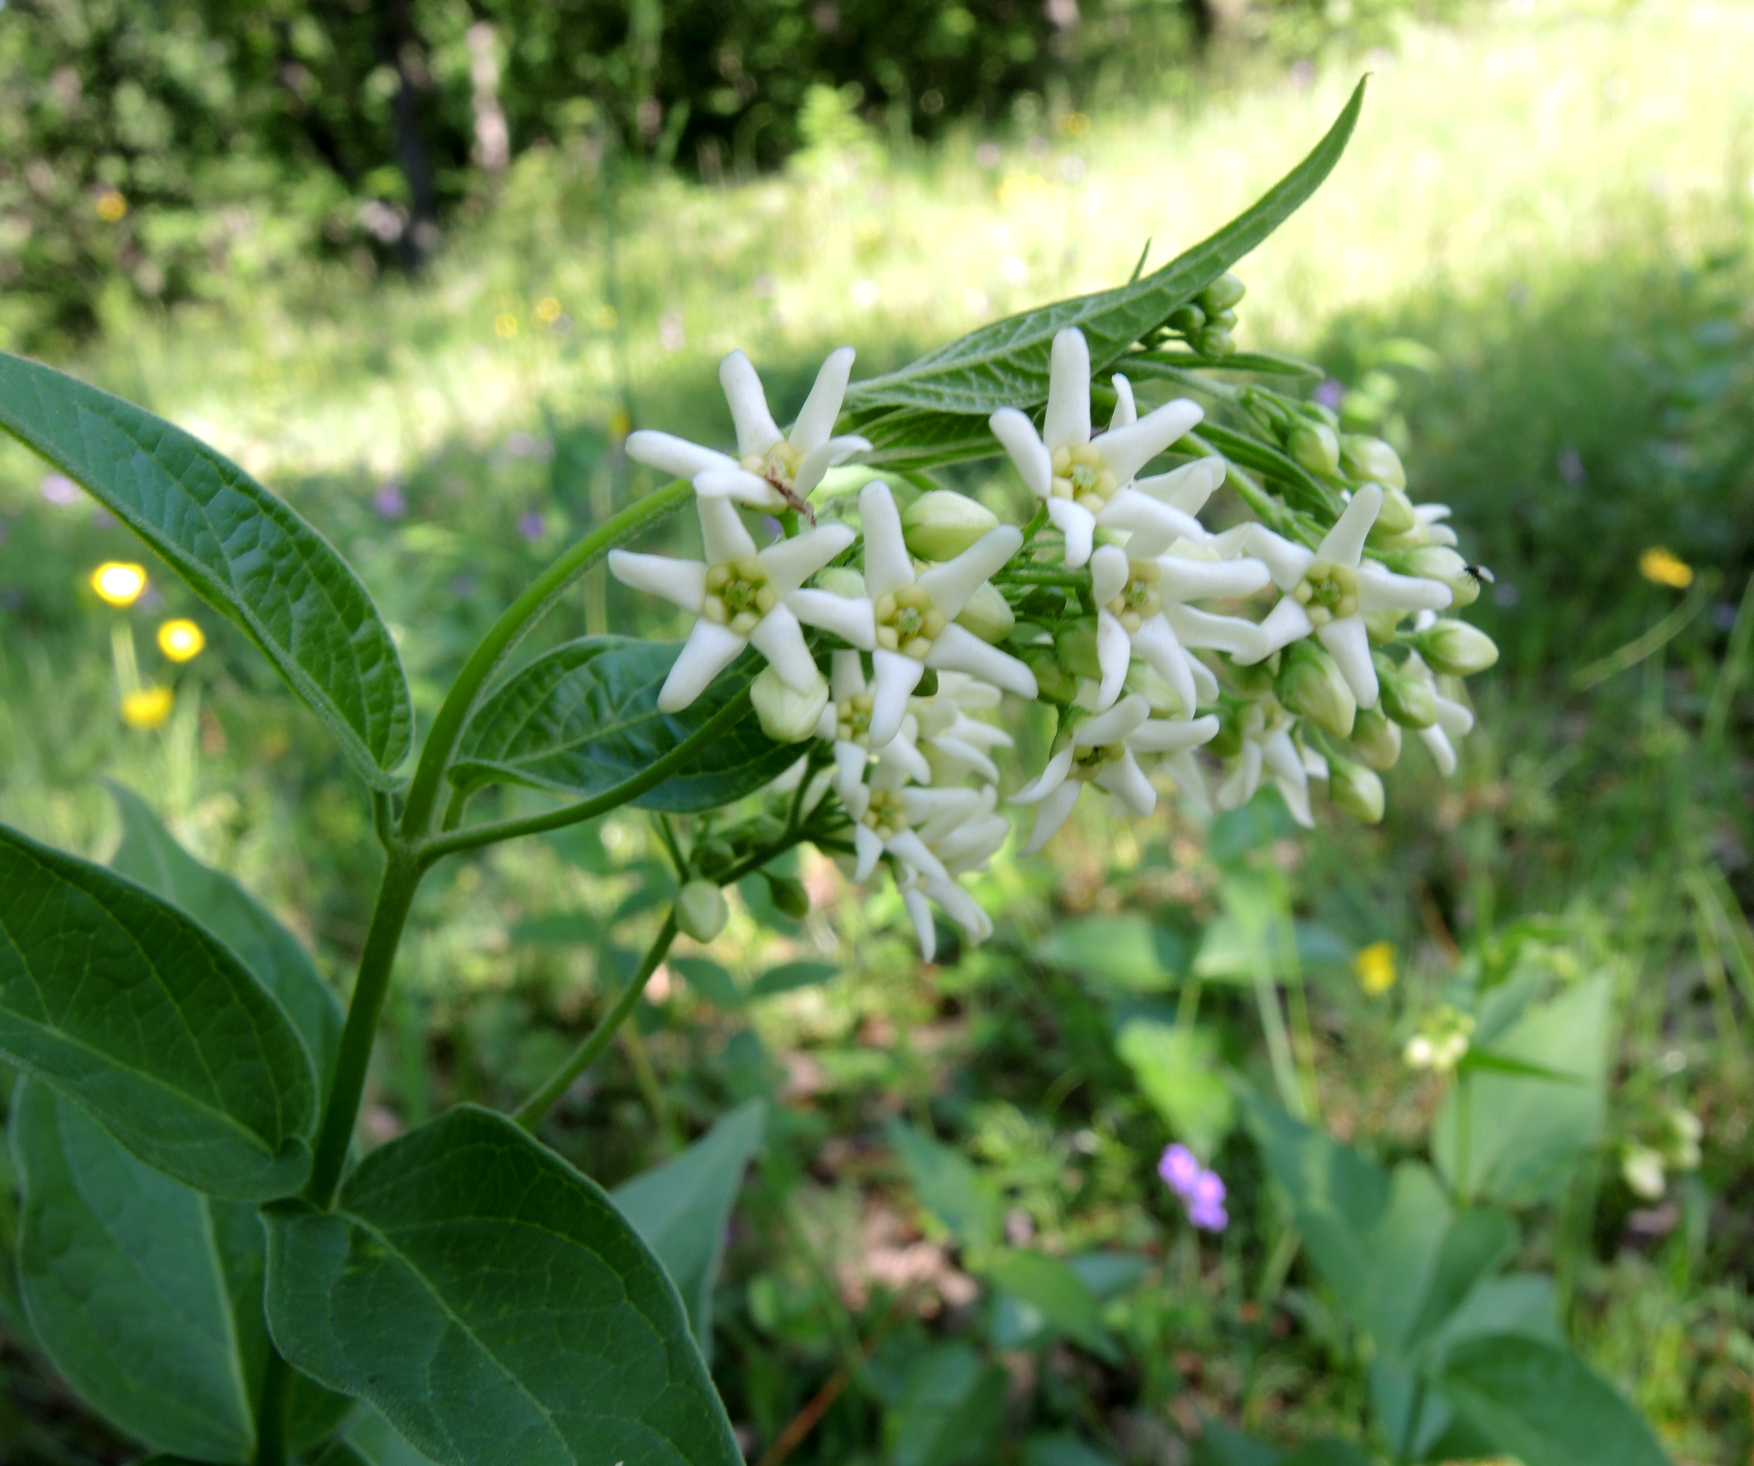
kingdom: Plantae
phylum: Tracheophyta
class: Magnoliopsida
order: Gentianales
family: Apocynaceae
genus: Vincetoxicum
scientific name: Vincetoxicum hirundinaria
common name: White swallowwort
